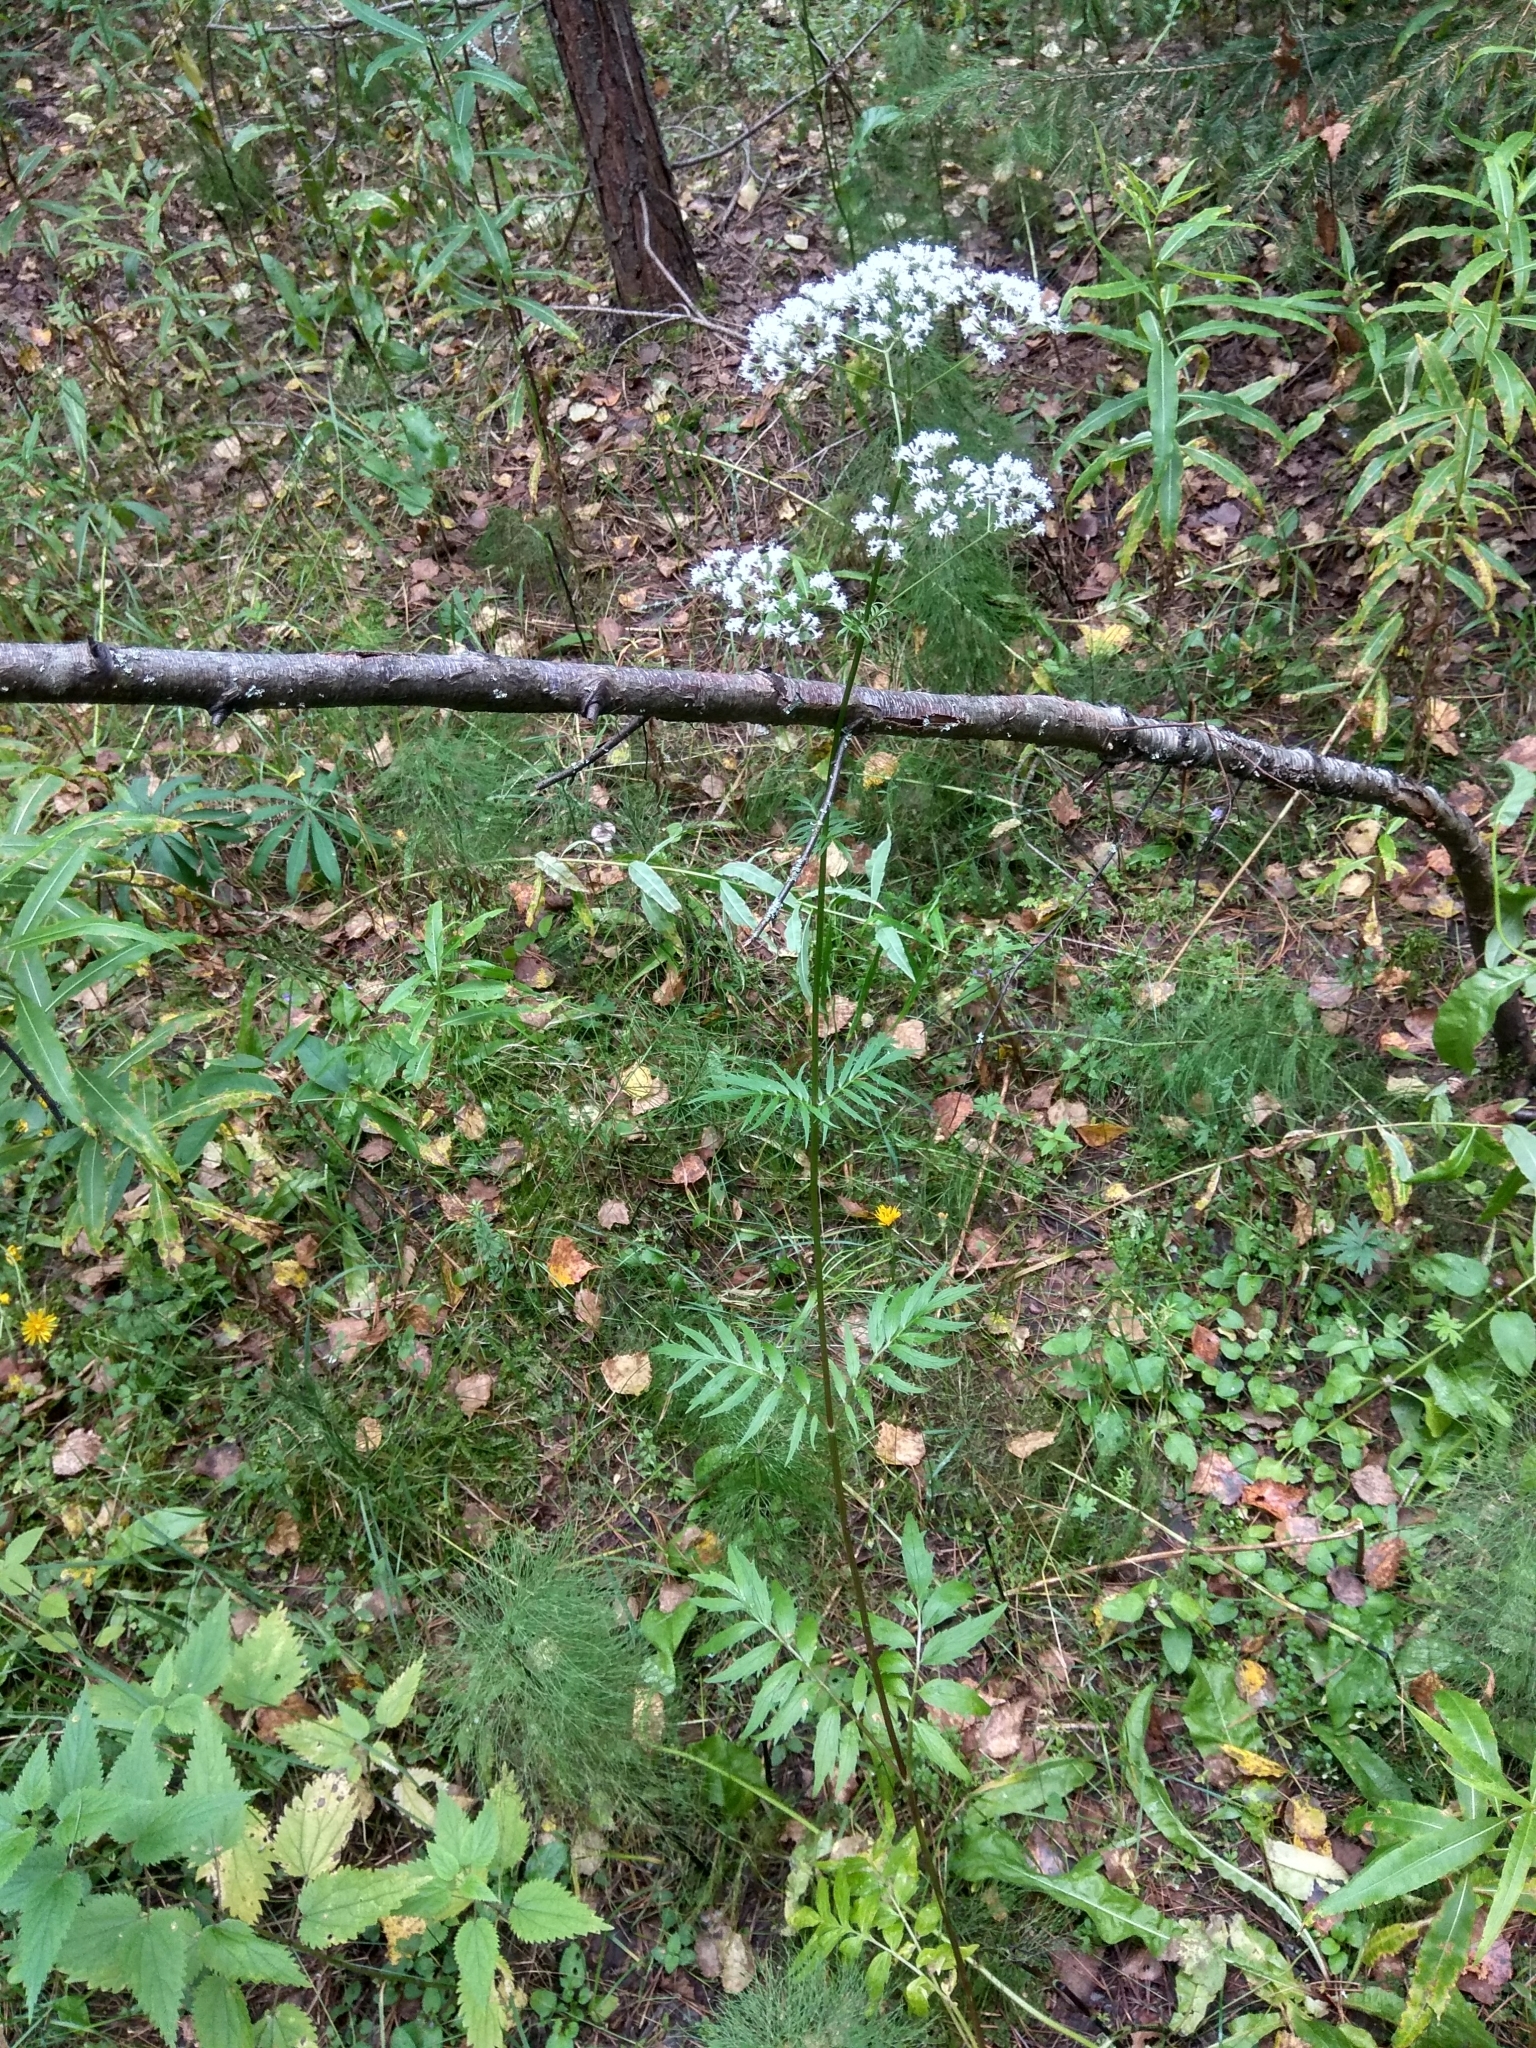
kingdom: Plantae
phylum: Tracheophyta
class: Magnoliopsida
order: Dipsacales
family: Caprifoliaceae
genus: Valeriana
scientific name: Valeriana officinalis
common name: Common valerian
